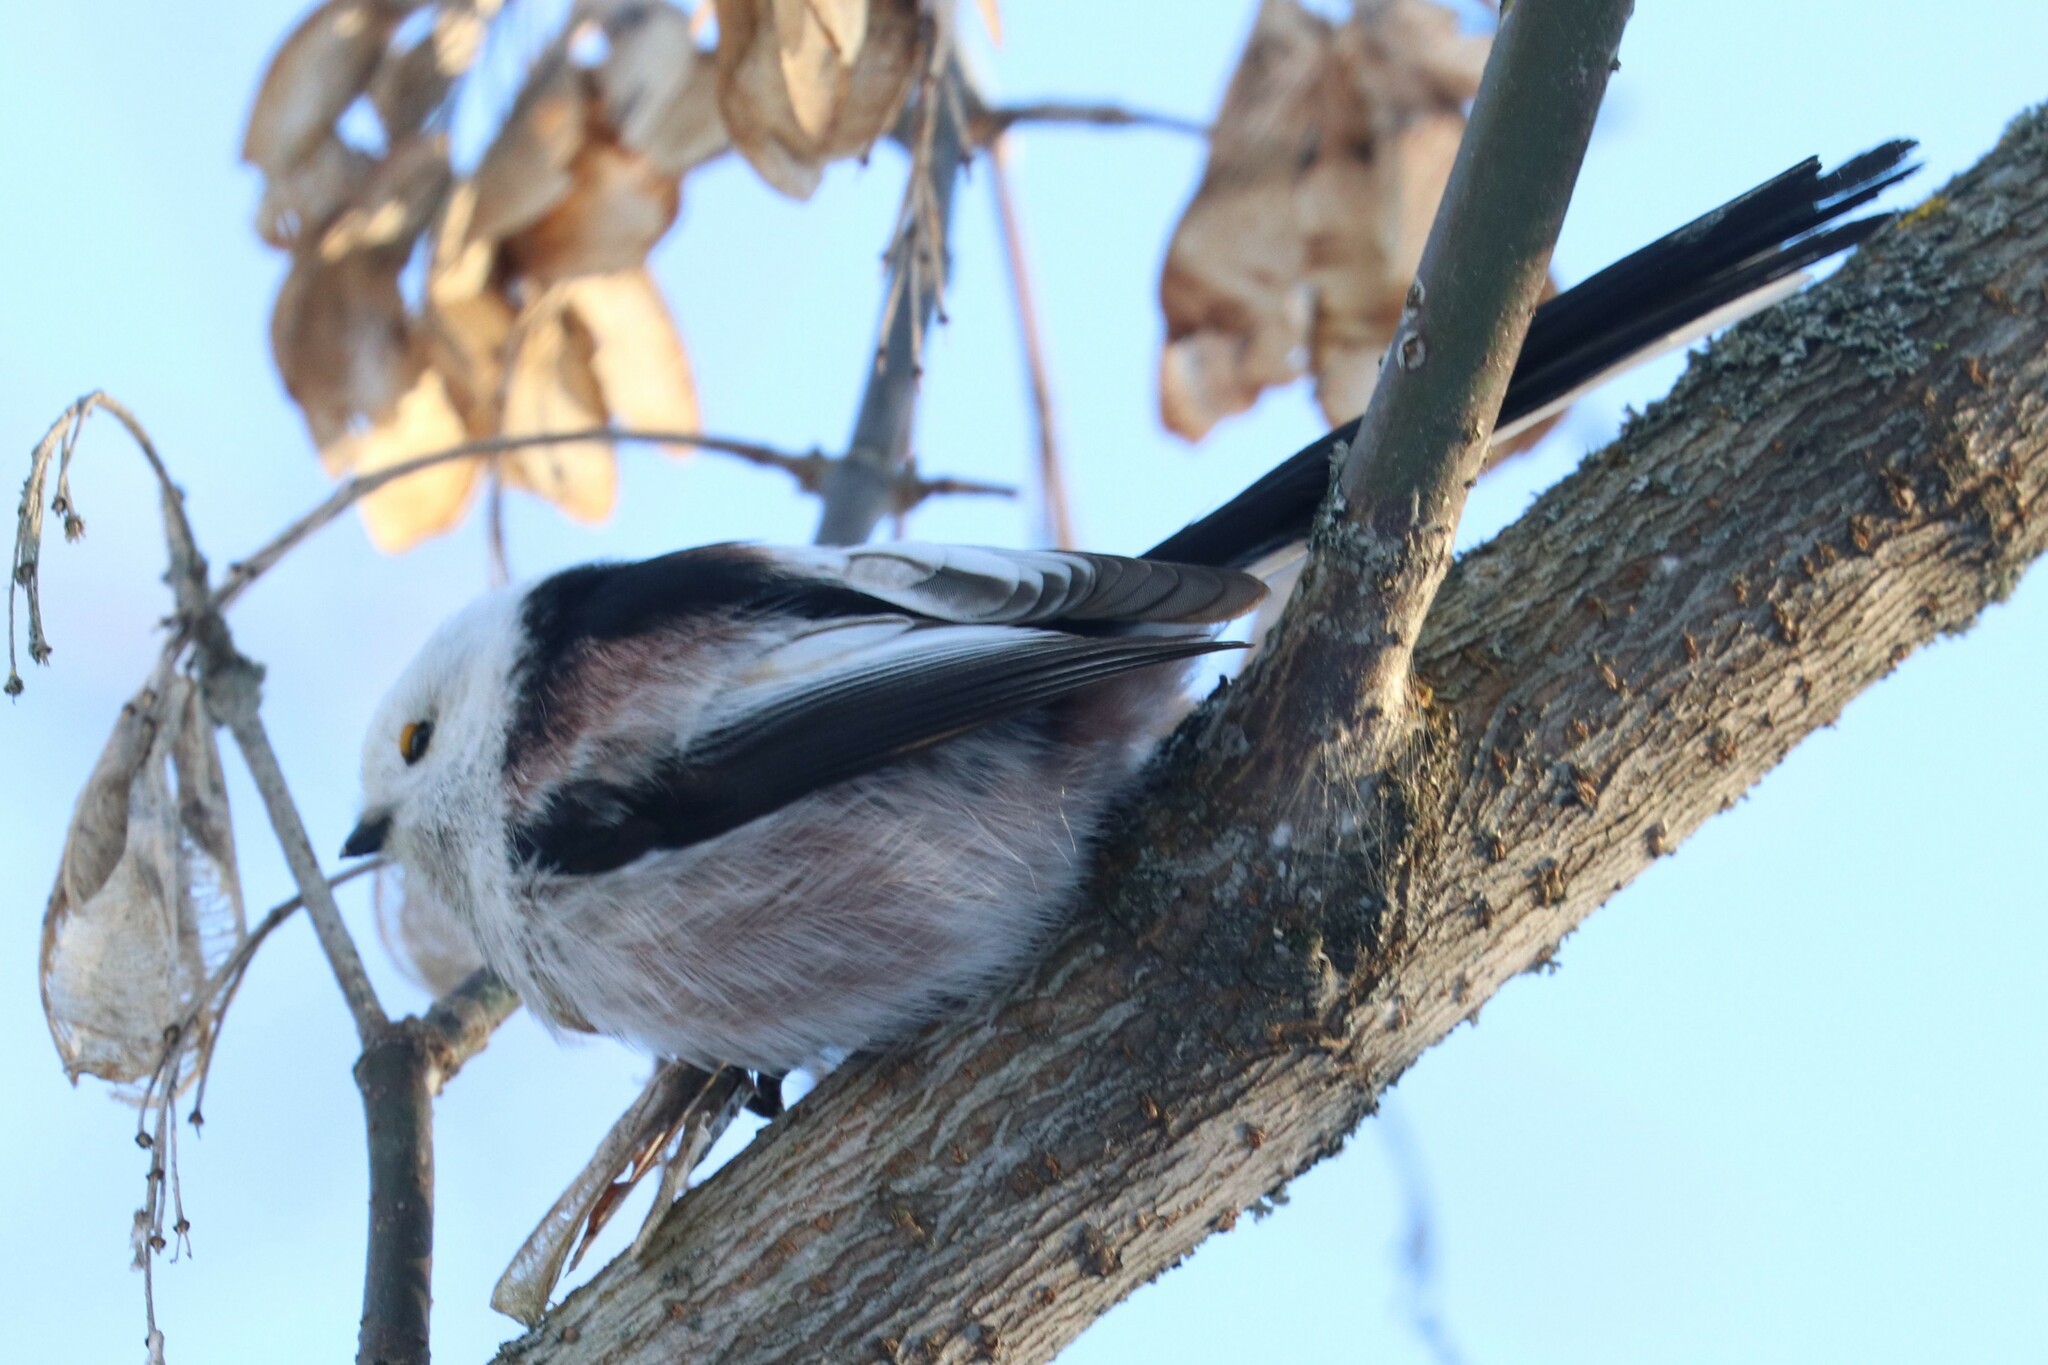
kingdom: Animalia
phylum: Chordata
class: Aves
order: Passeriformes
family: Aegithalidae
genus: Aegithalos
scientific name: Aegithalos caudatus
